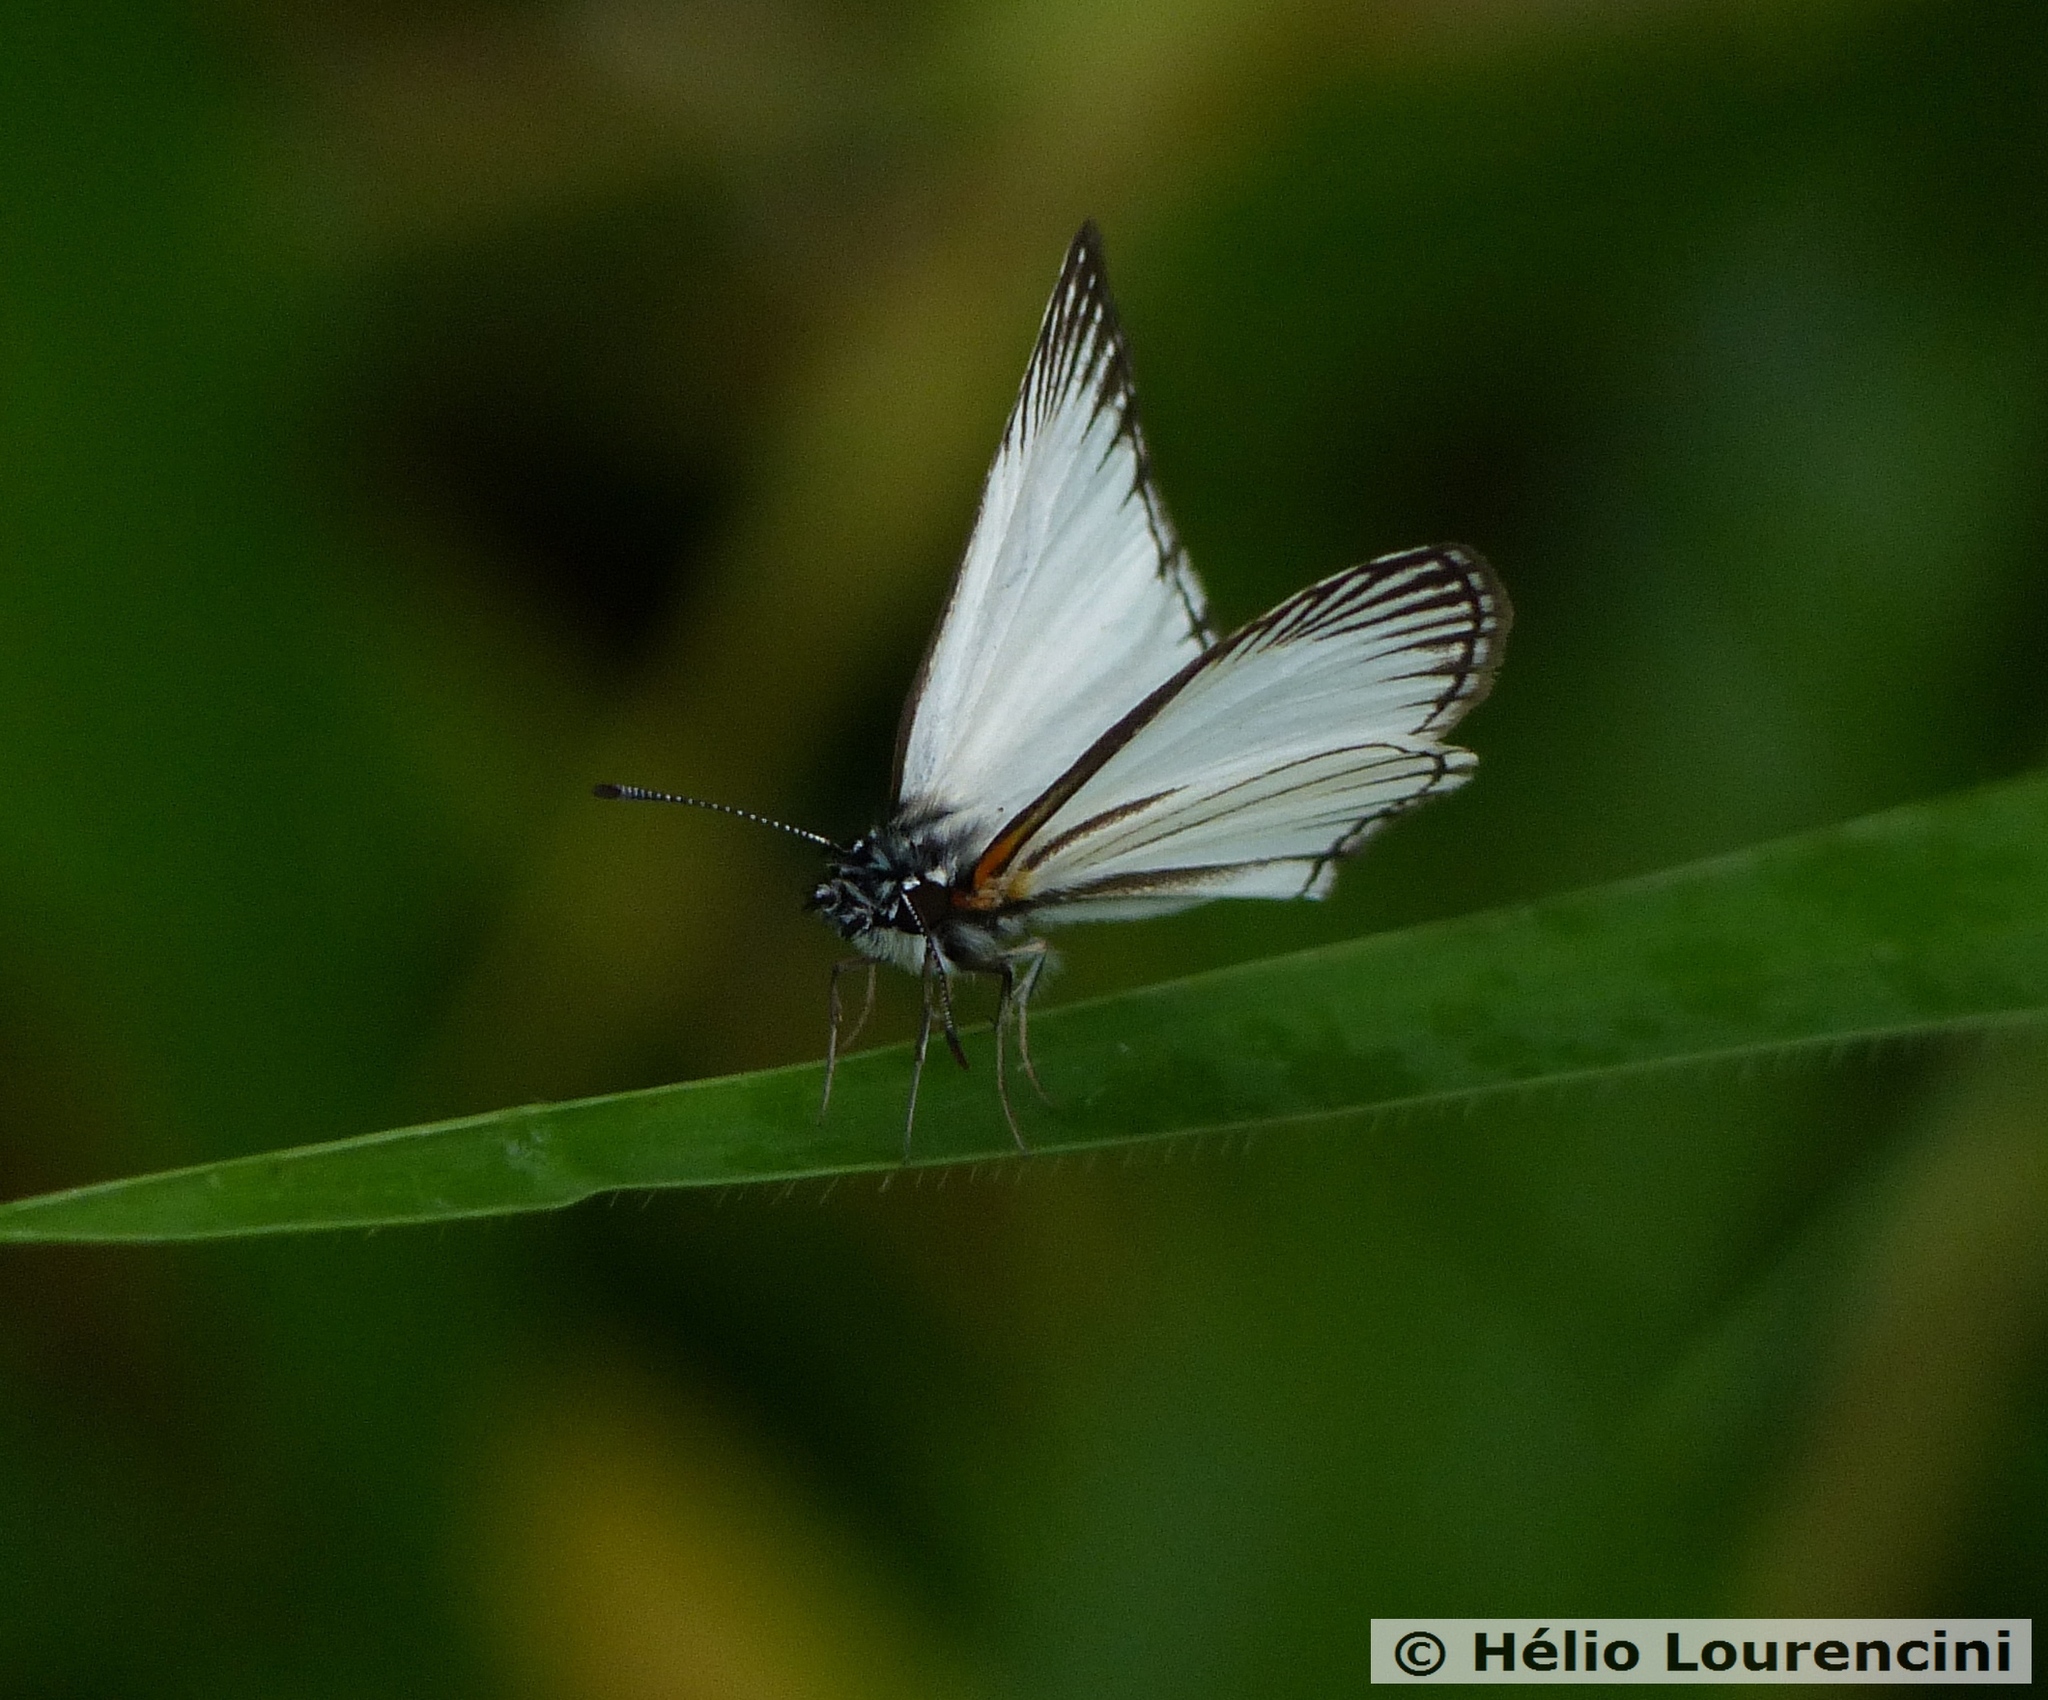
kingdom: Animalia
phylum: Arthropoda
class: Insecta
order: Lepidoptera
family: Hesperiidae
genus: Heliopetes
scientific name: Heliopetes arsalte
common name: Veined white-skipper
